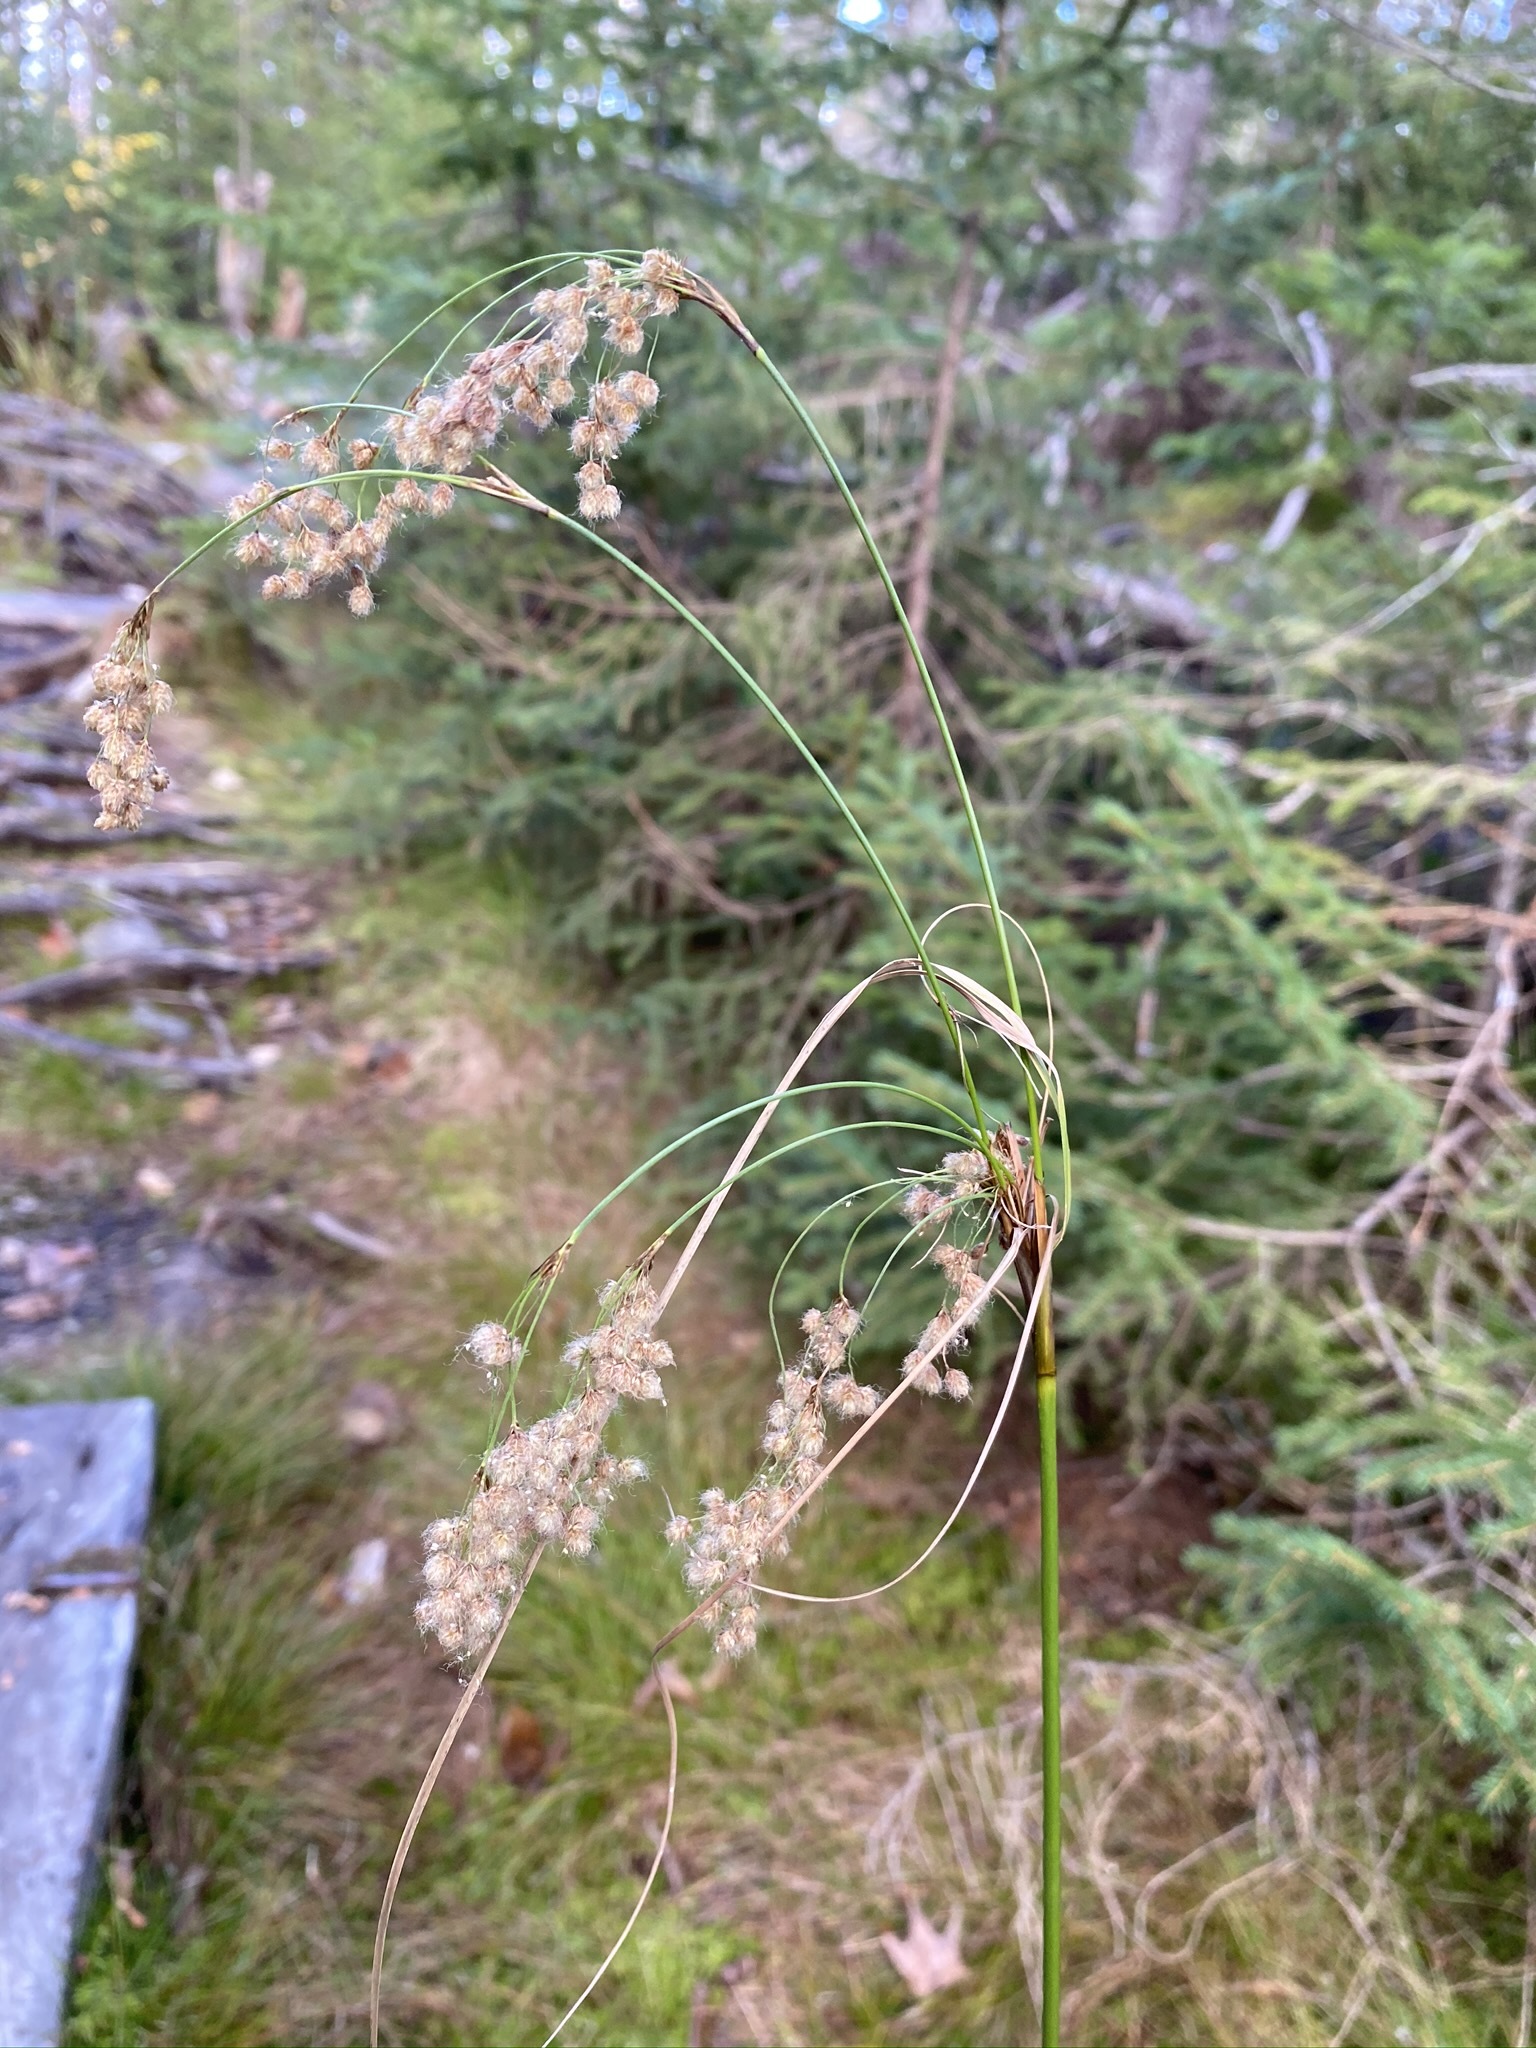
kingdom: Plantae
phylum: Tracheophyta
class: Liliopsida
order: Poales
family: Cyperaceae
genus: Scirpus
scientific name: Scirpus cyperinus
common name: Black-sheathed bulrush
